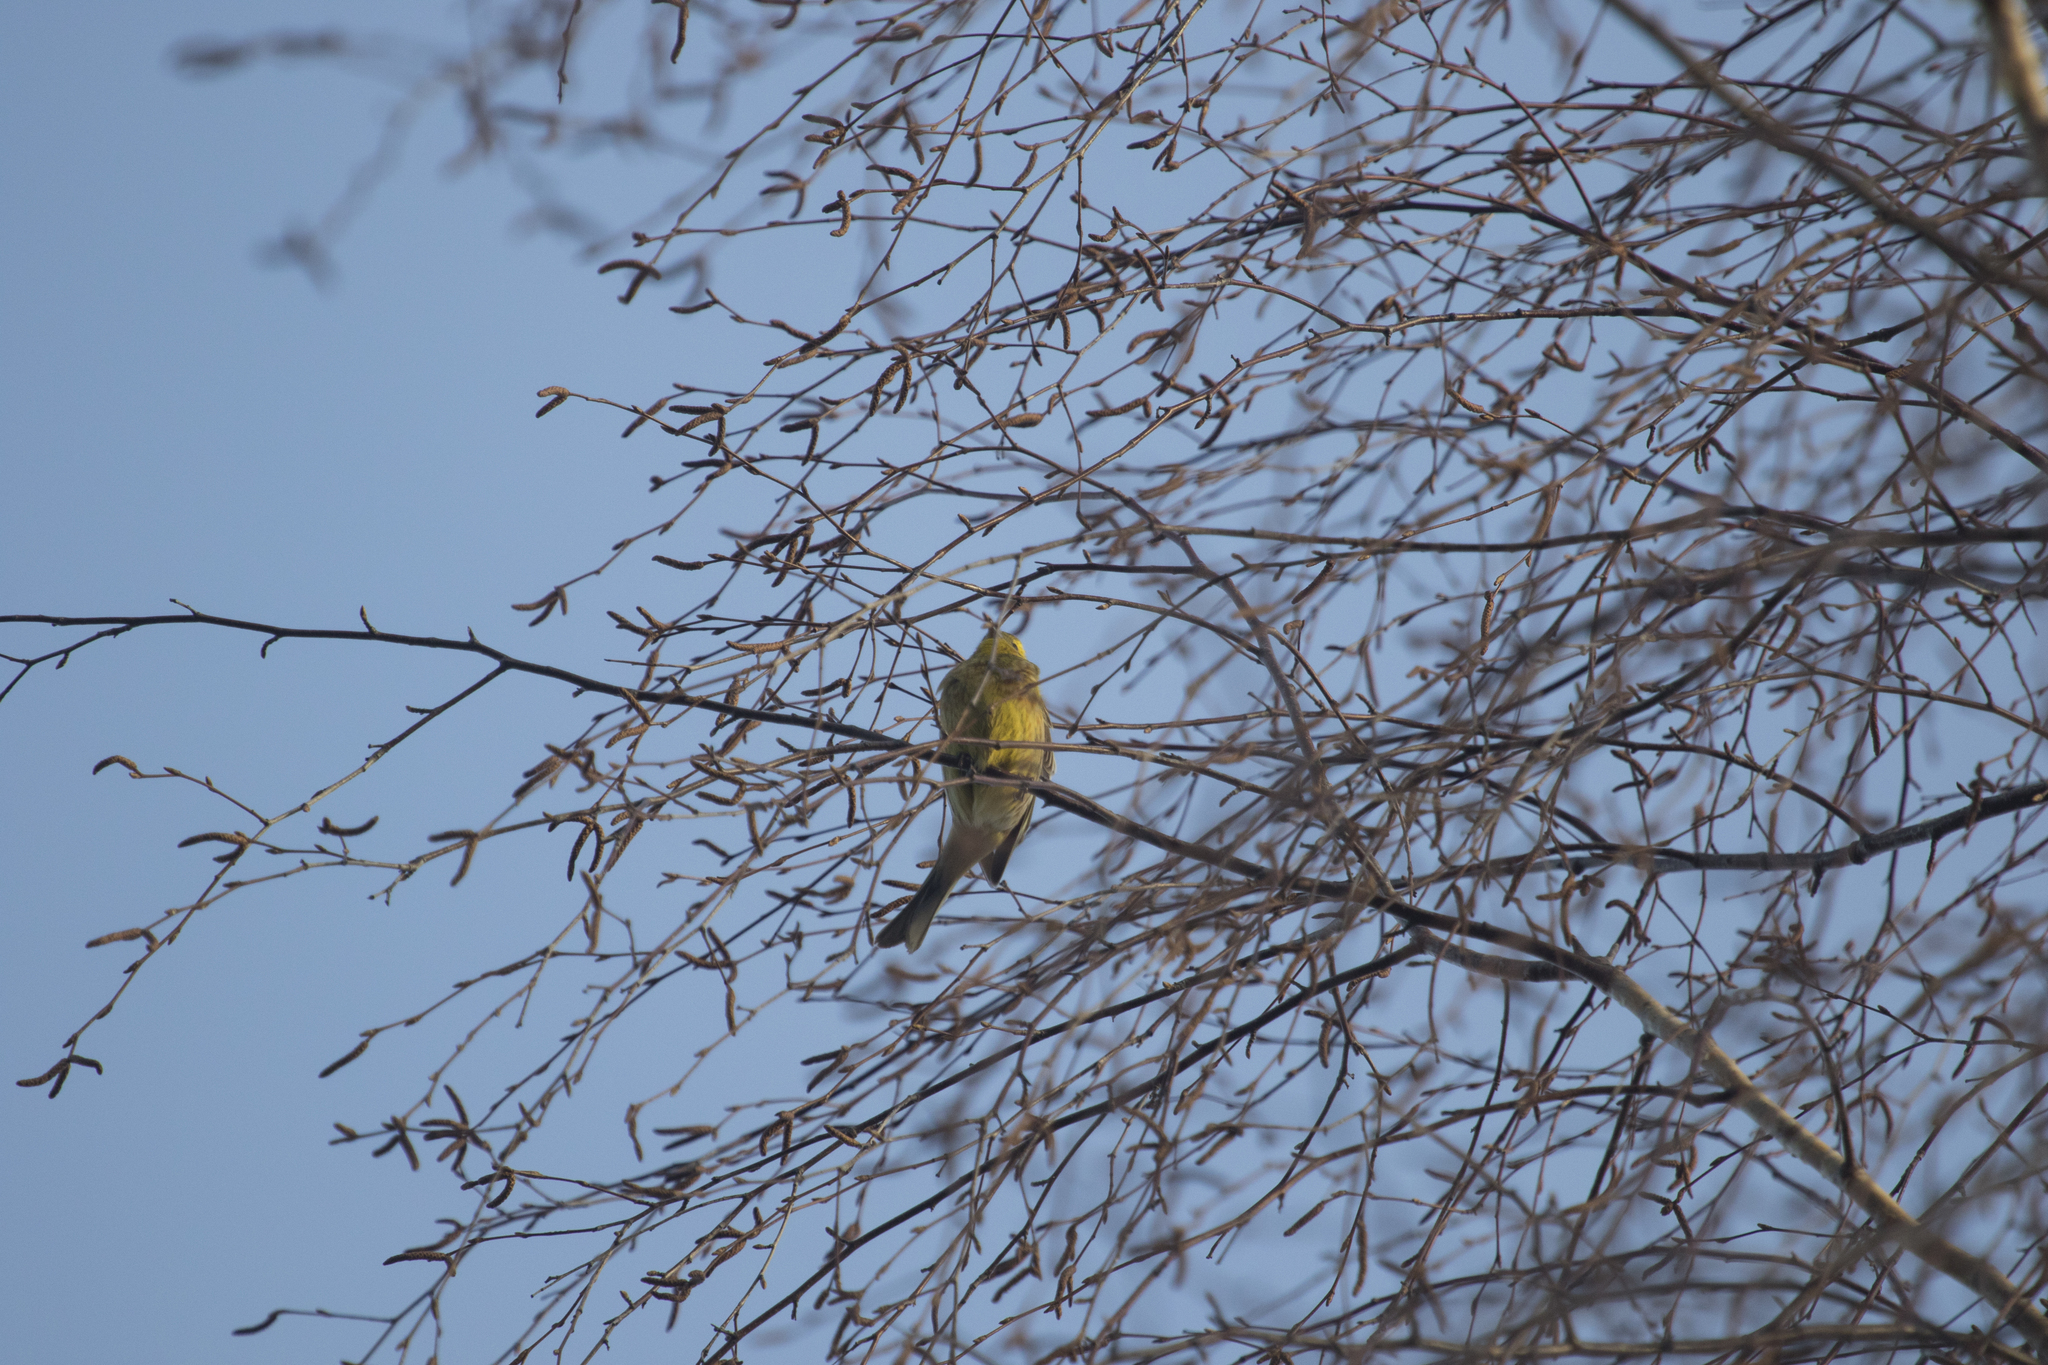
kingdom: Animalia
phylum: Chordata
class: Aves
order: Passeriformes
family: Emberizidae
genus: Emberiza
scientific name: Emberiza citrinella
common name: Yellowhammer
